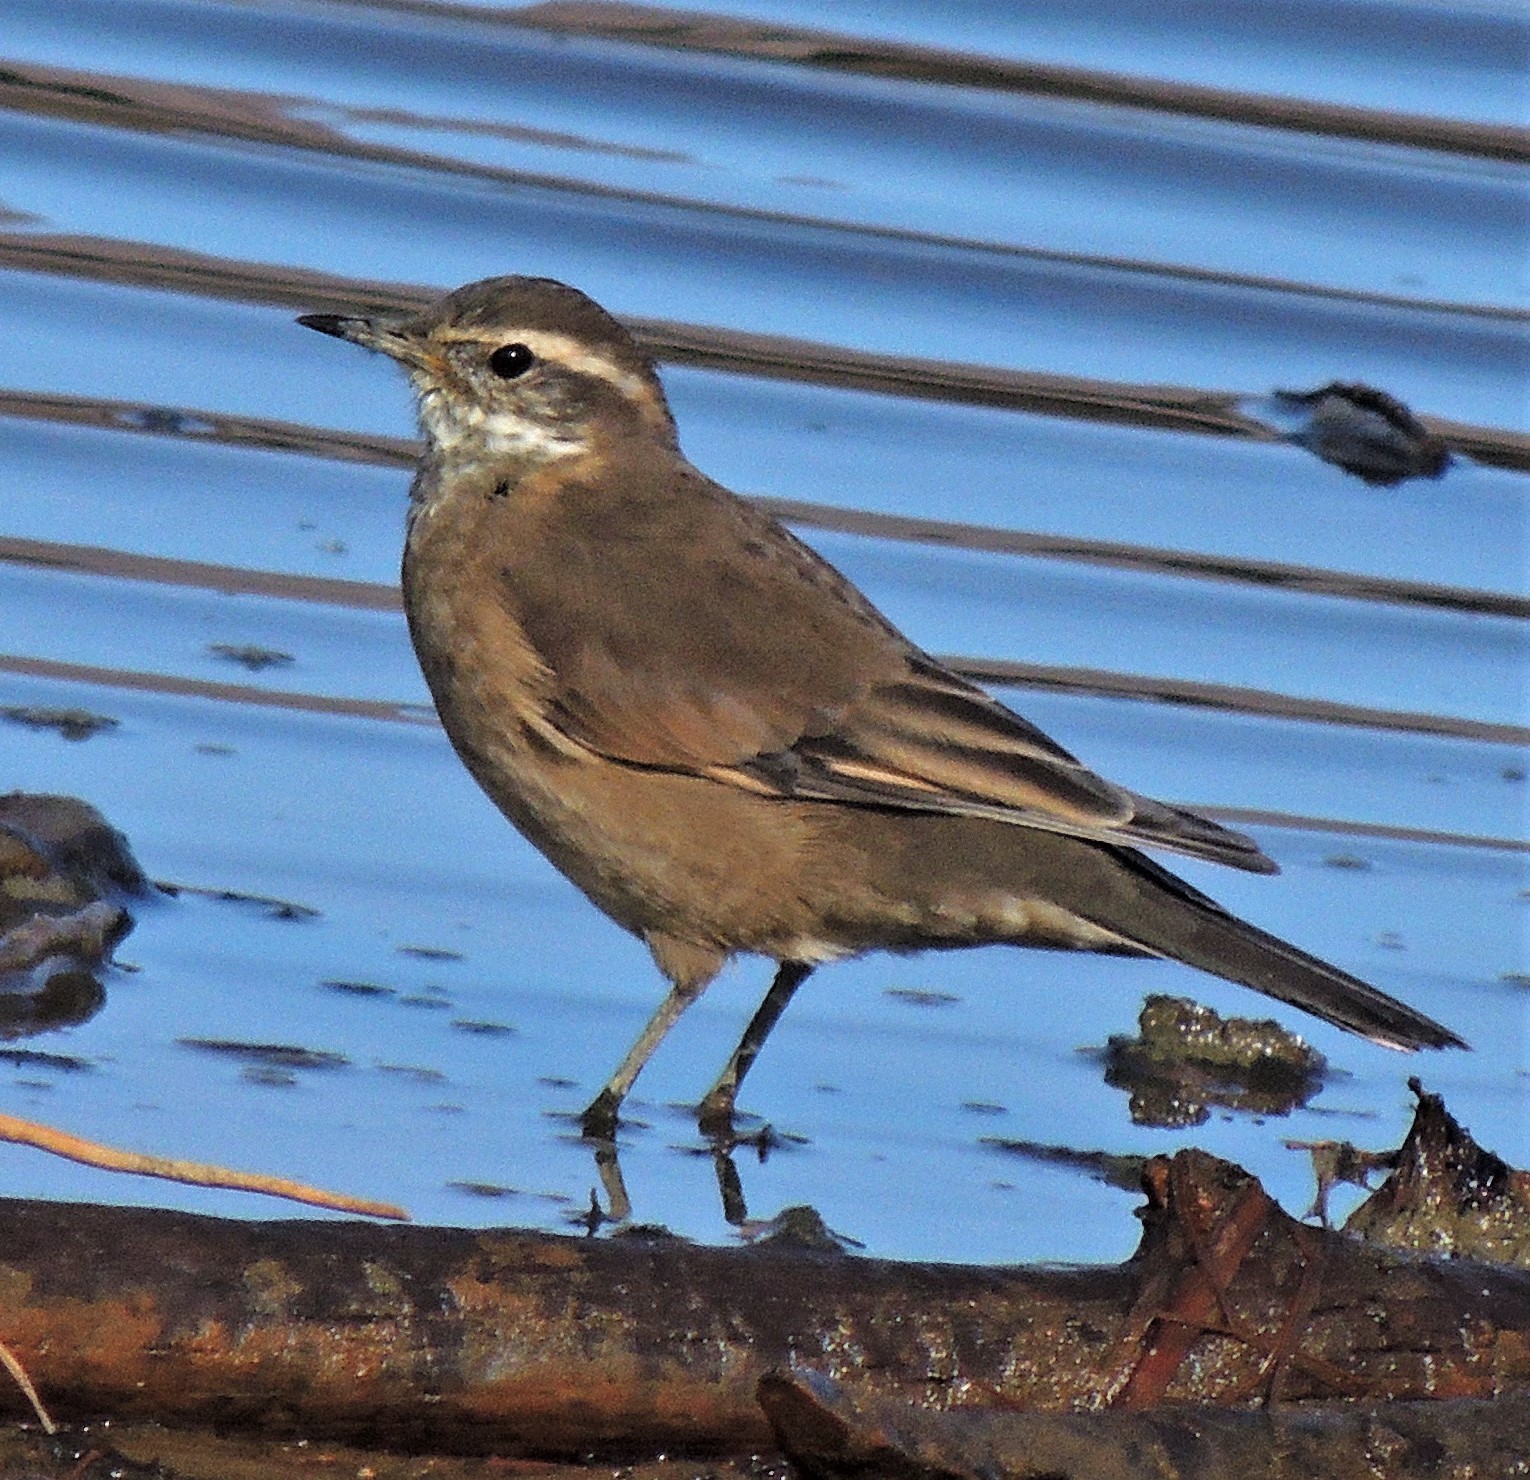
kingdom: Animalia
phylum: Chordata
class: Aves
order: Passeriformes
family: Furnariidae
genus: Cinclodes
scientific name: Cinclodes fuscus
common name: Buff-winged cinclodes
